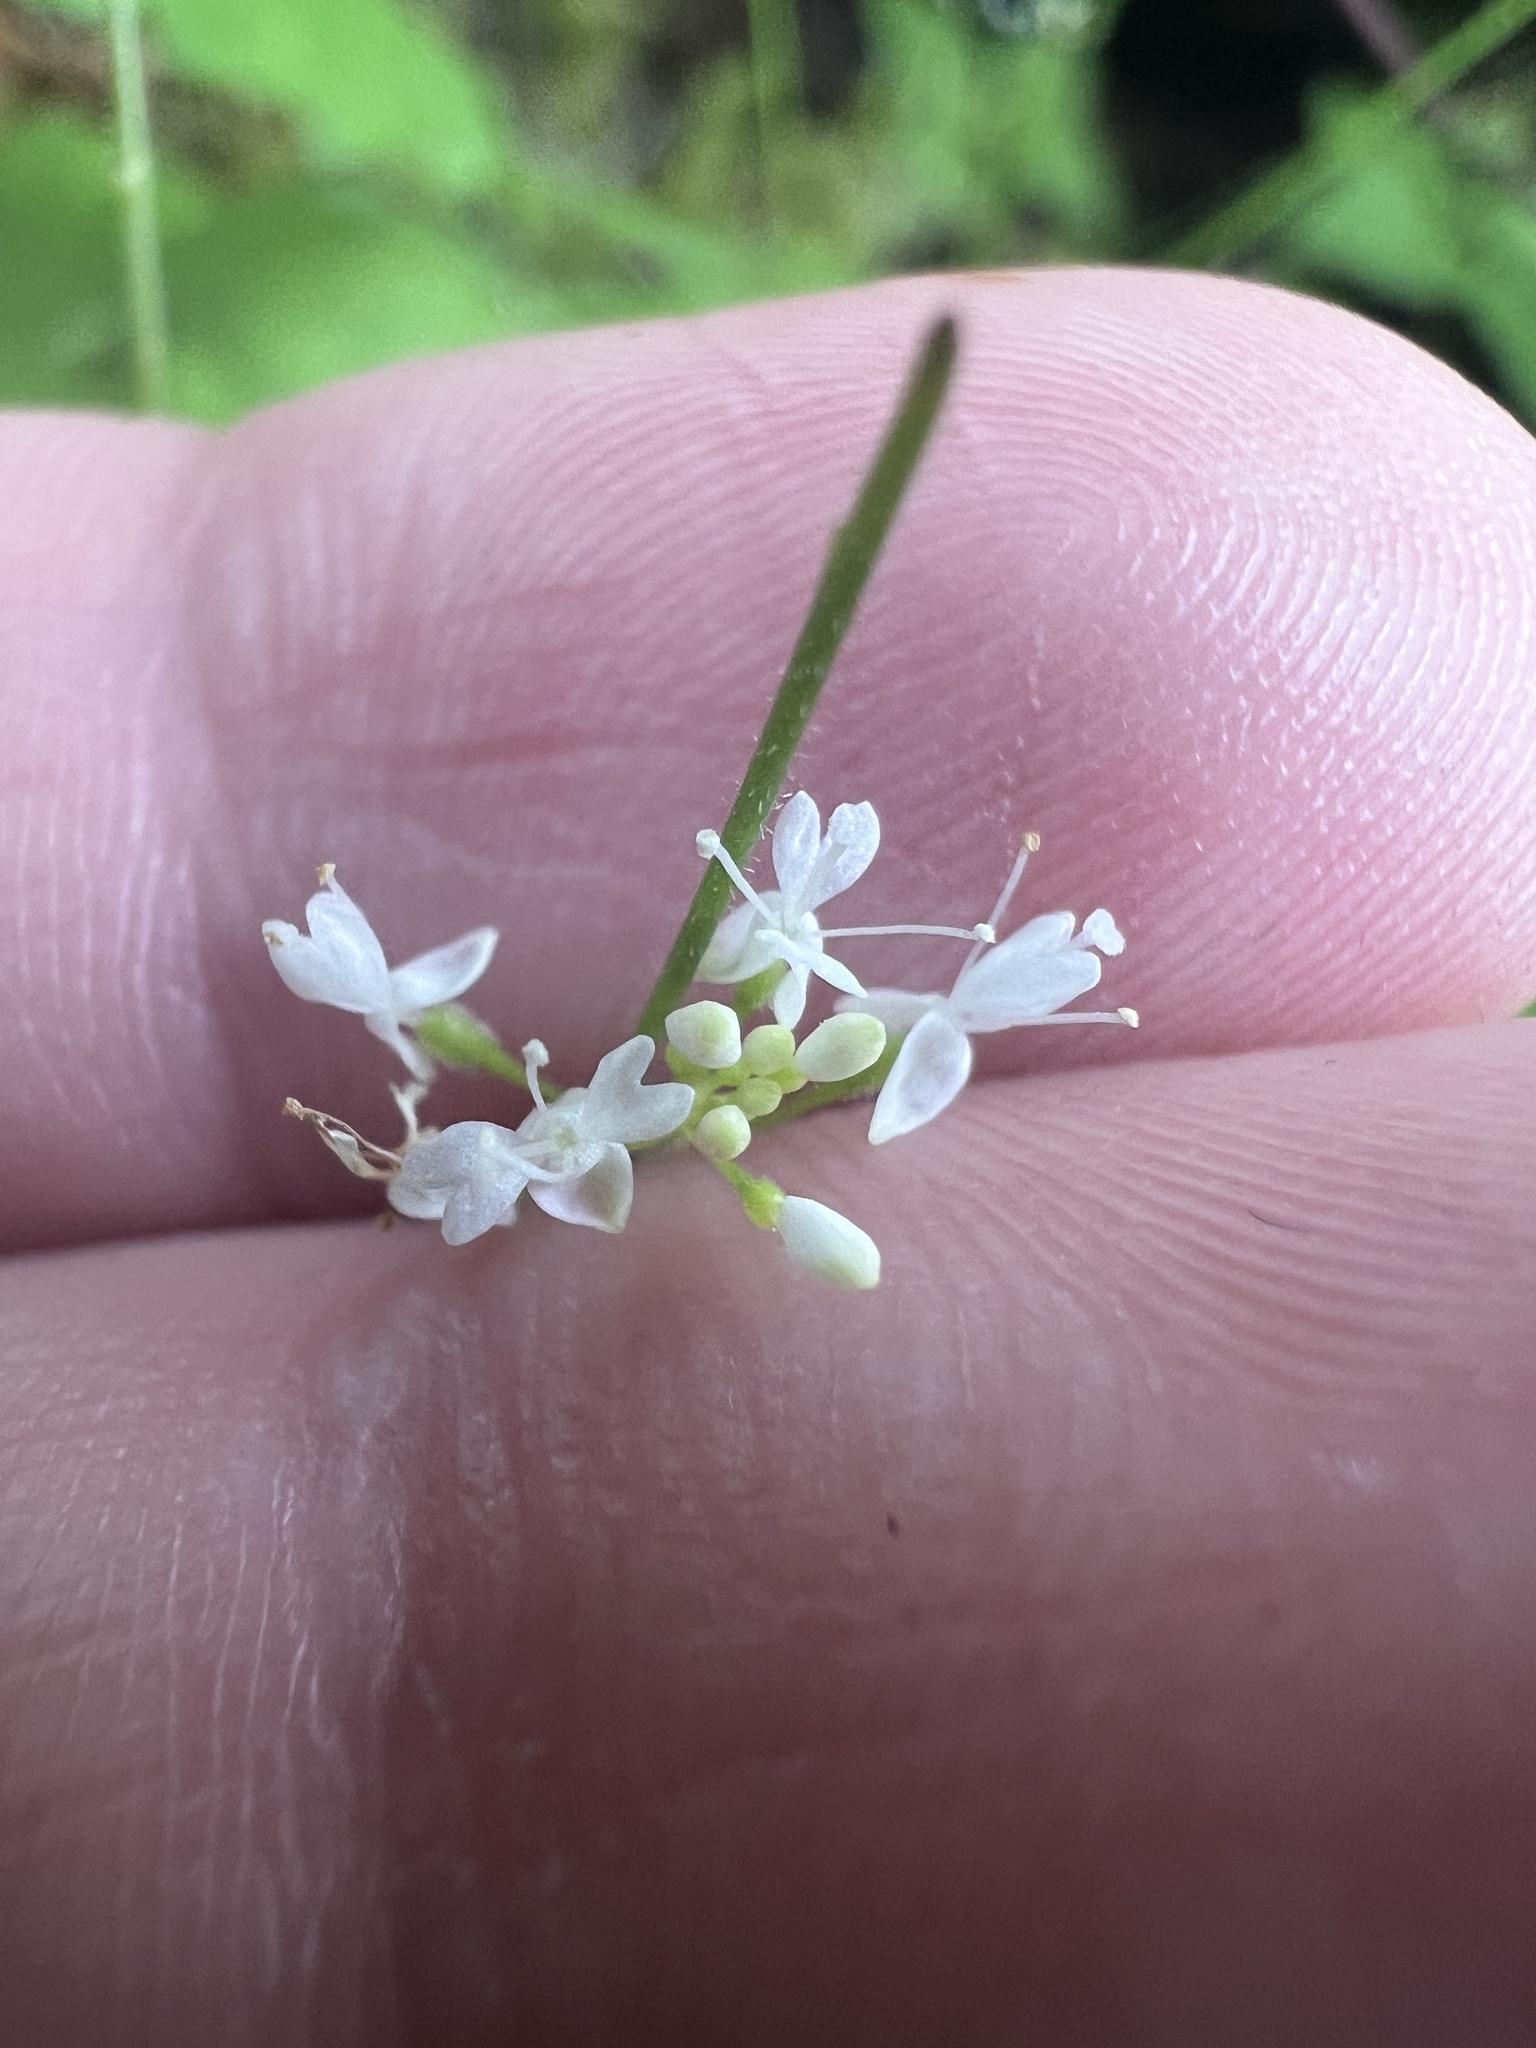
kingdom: Plantae
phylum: Tracheophyta
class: Magnoliopsida
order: Myrtales
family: Onagraceae
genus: Circaea
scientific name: Circaea alpina
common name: Alpine enchanter's-nightshade
